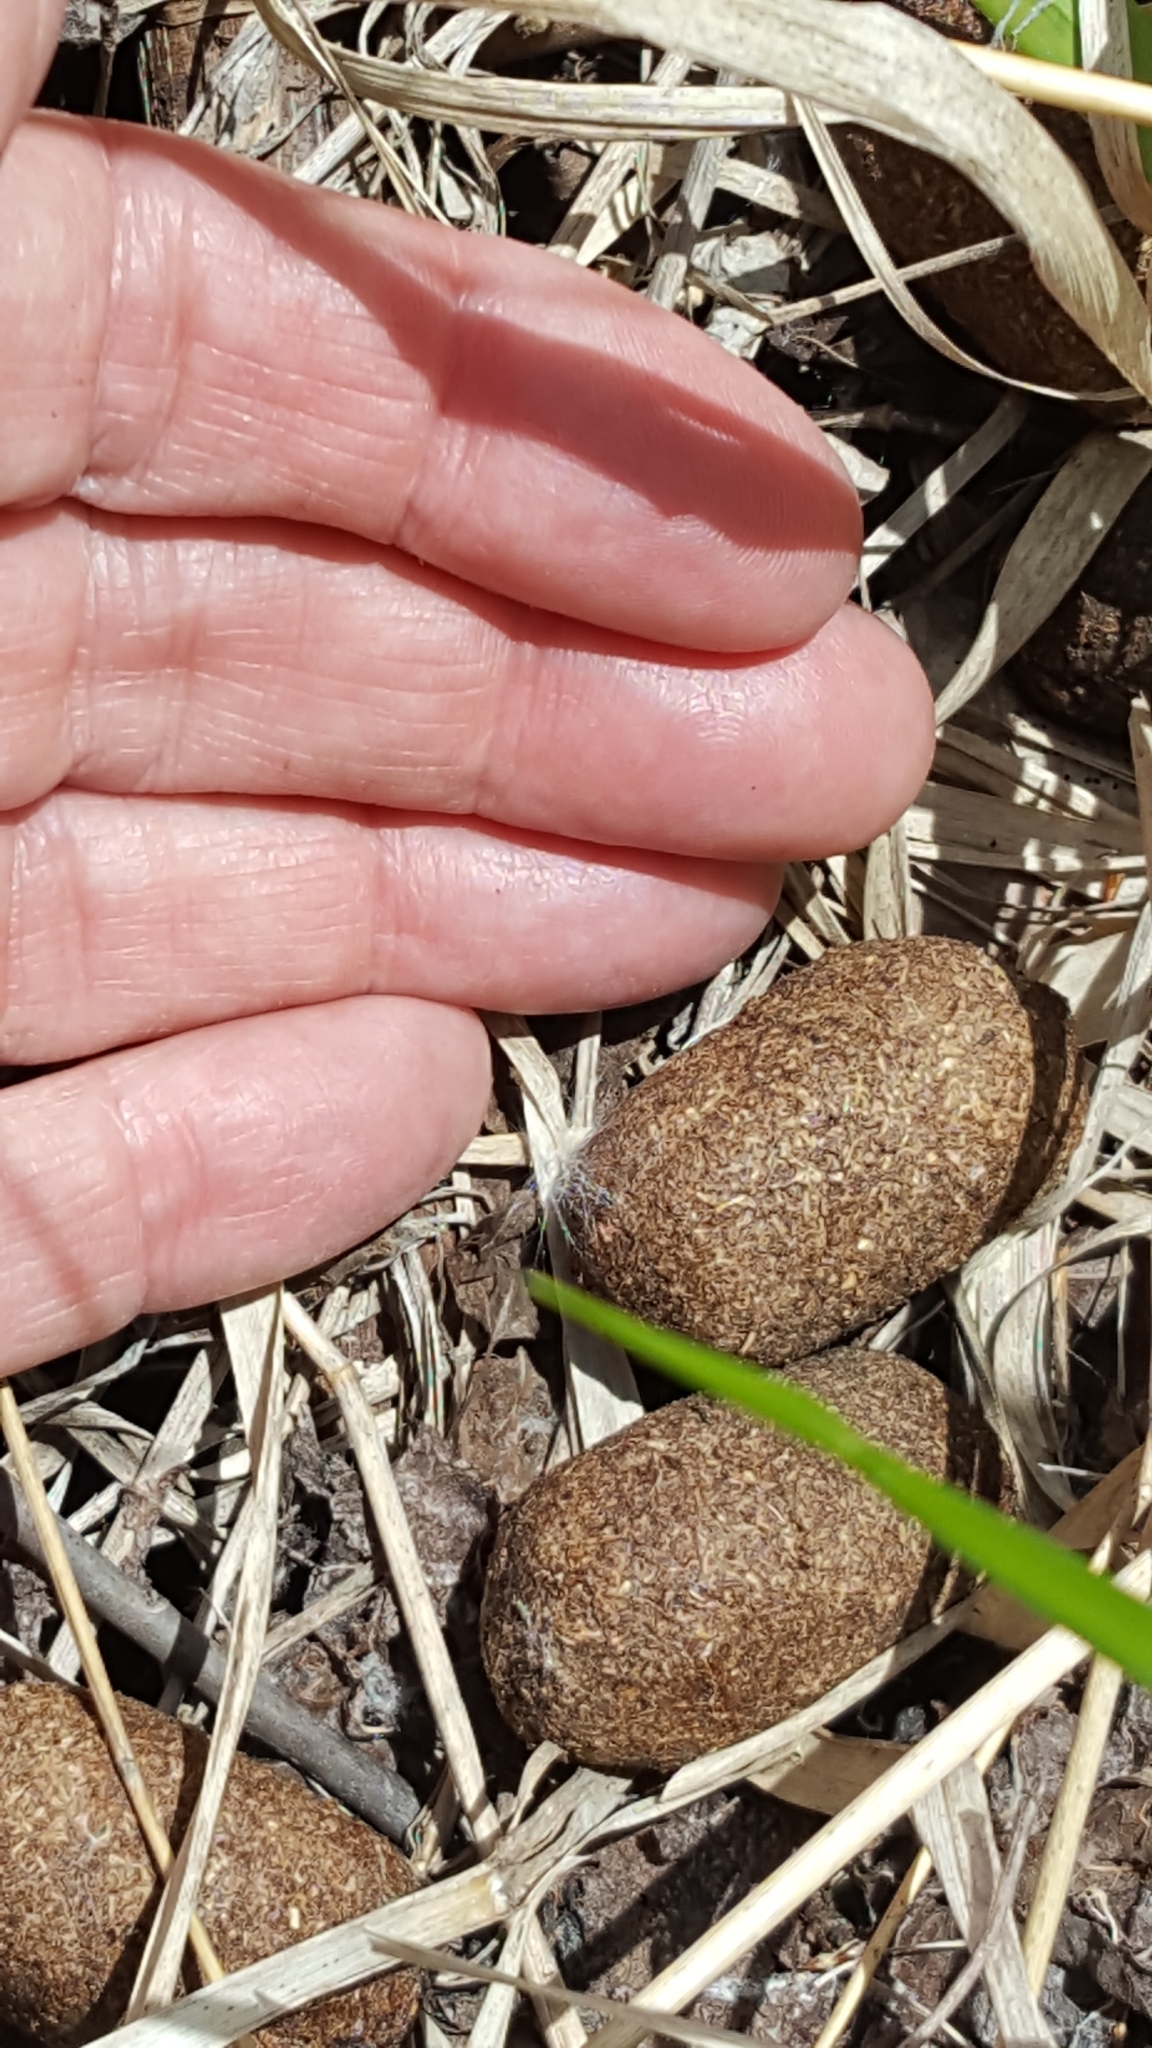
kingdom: Animalia
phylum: Chordata
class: Mammalia
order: Artiodactyla
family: Cervidae
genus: Alces
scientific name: Alces alces
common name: Moose
